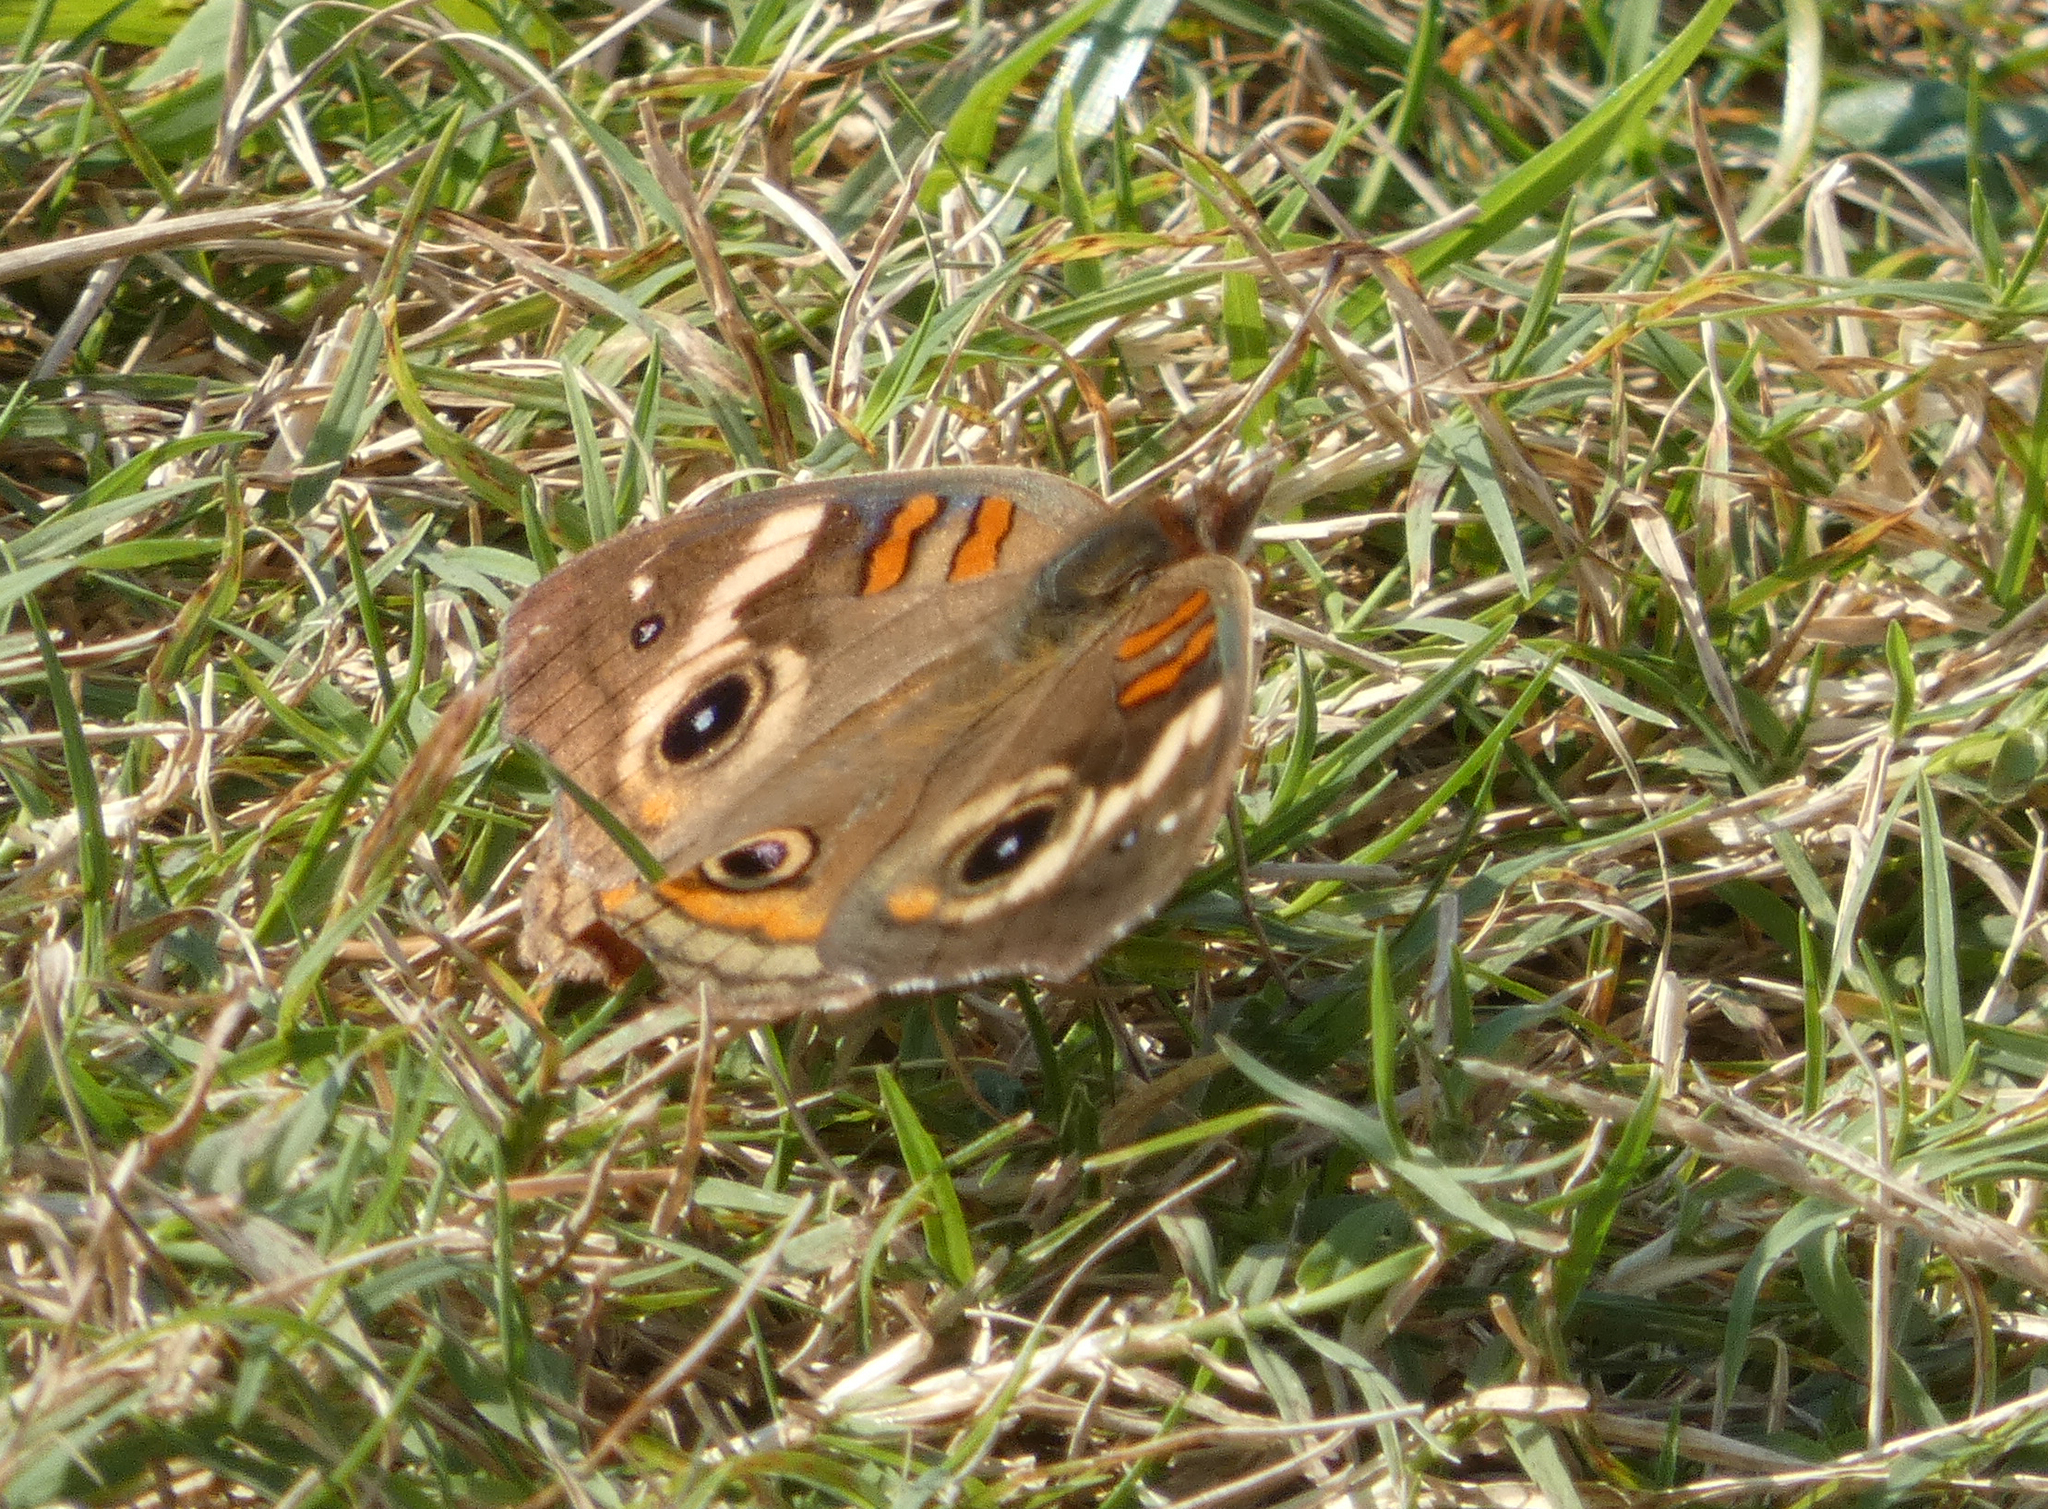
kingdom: Animalia
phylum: Arthropoda
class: Insecta
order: Lepidoptera
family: Nymphalidae
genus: Junonia
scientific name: Junonia coenia
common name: Common buckeye
